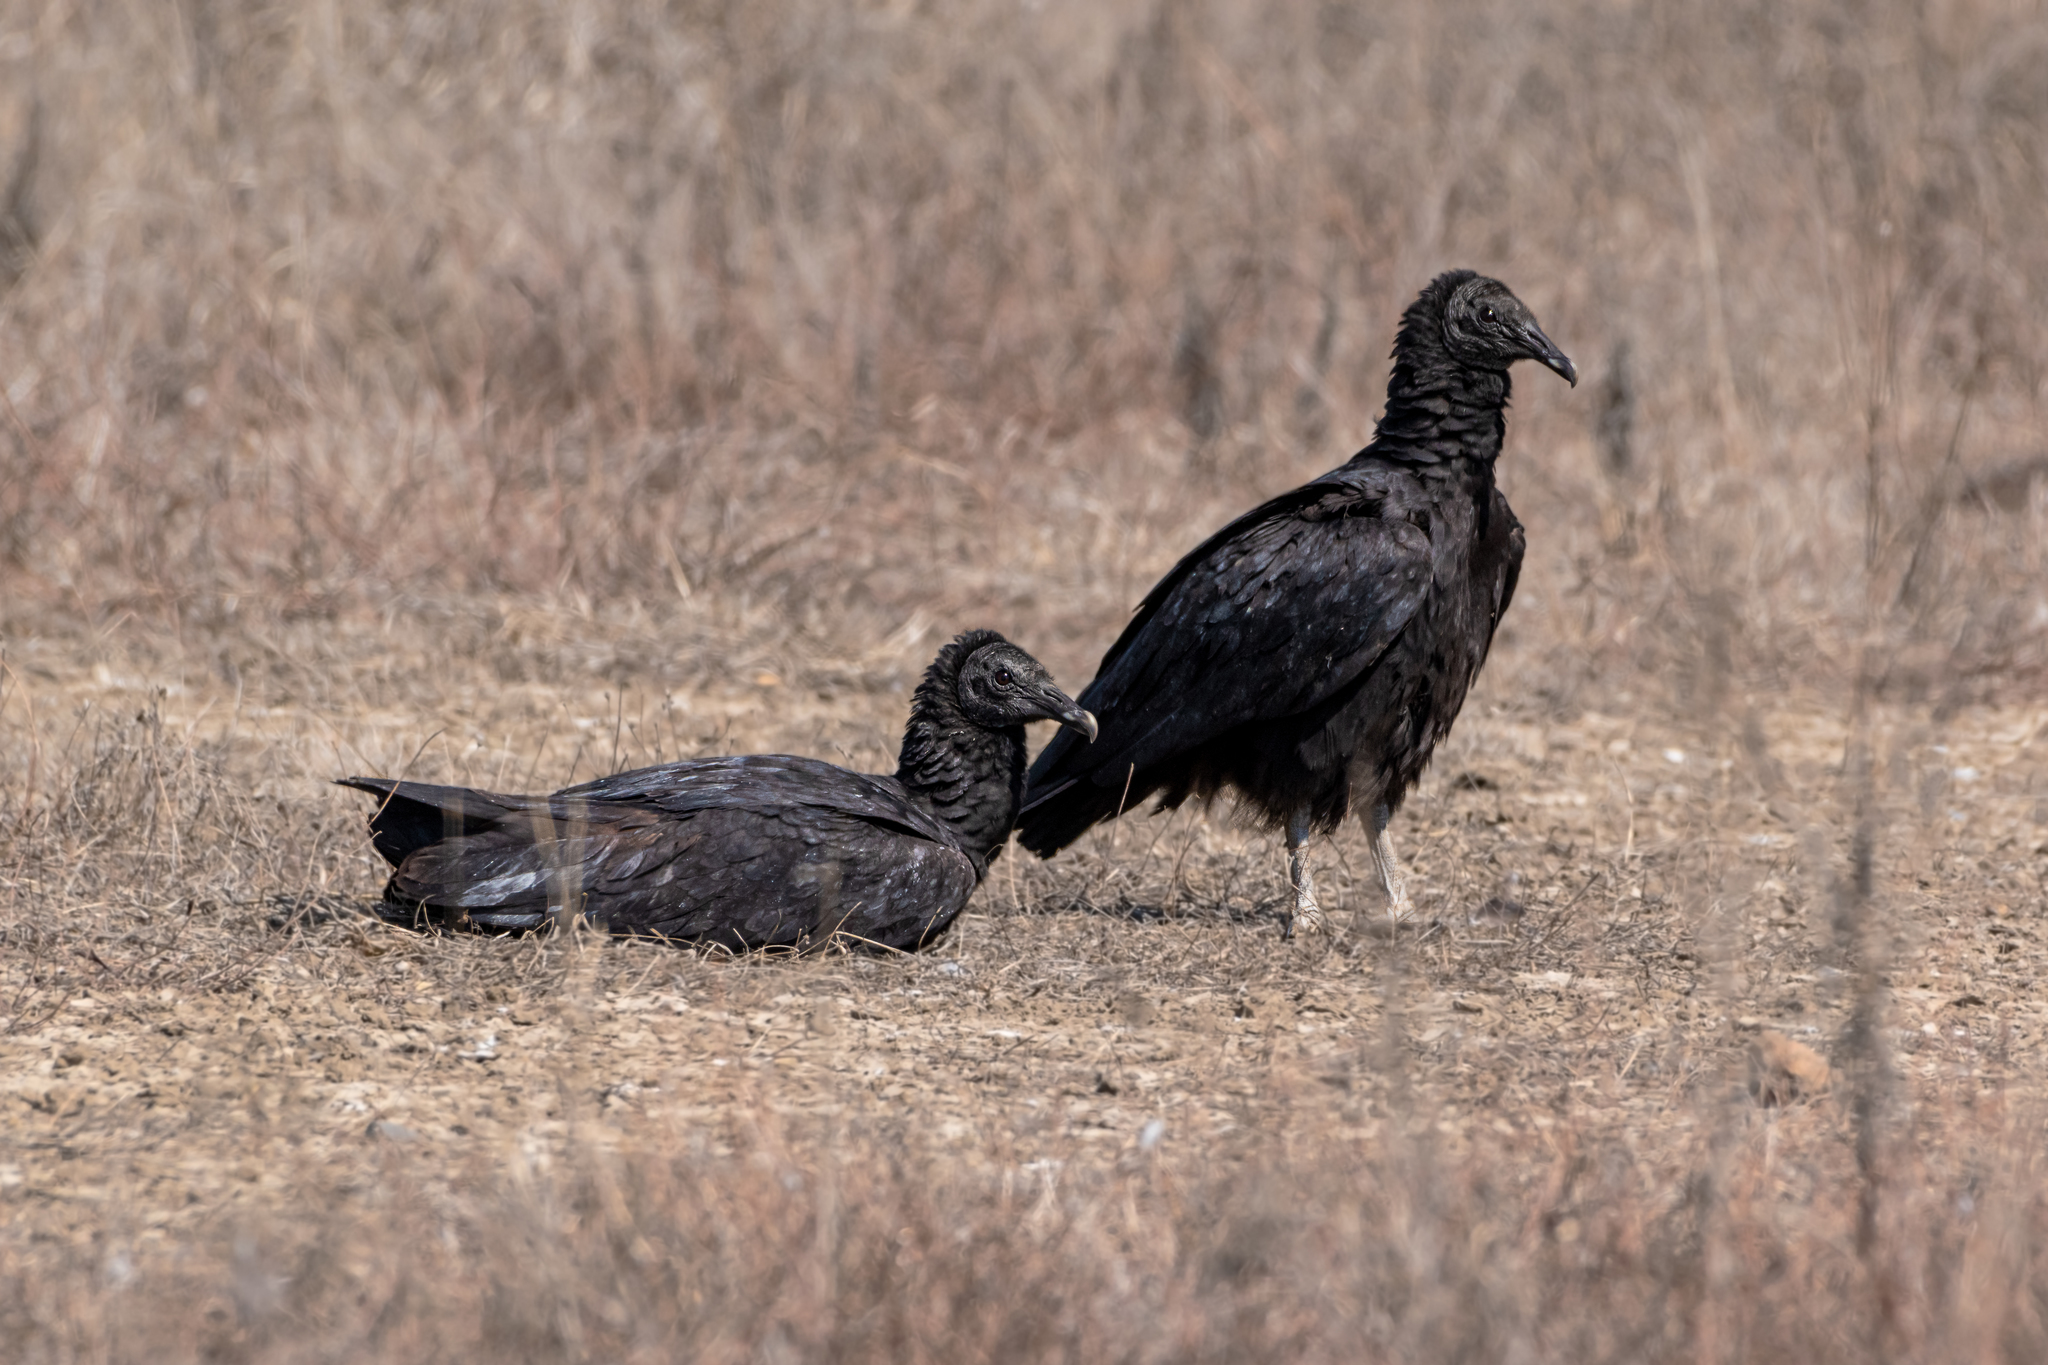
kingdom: Animalia
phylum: Chordata
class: Aves
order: Accipitriformes
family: Cathartidae
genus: Coragyps
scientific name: Coragyps atratus
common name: Black vulture
